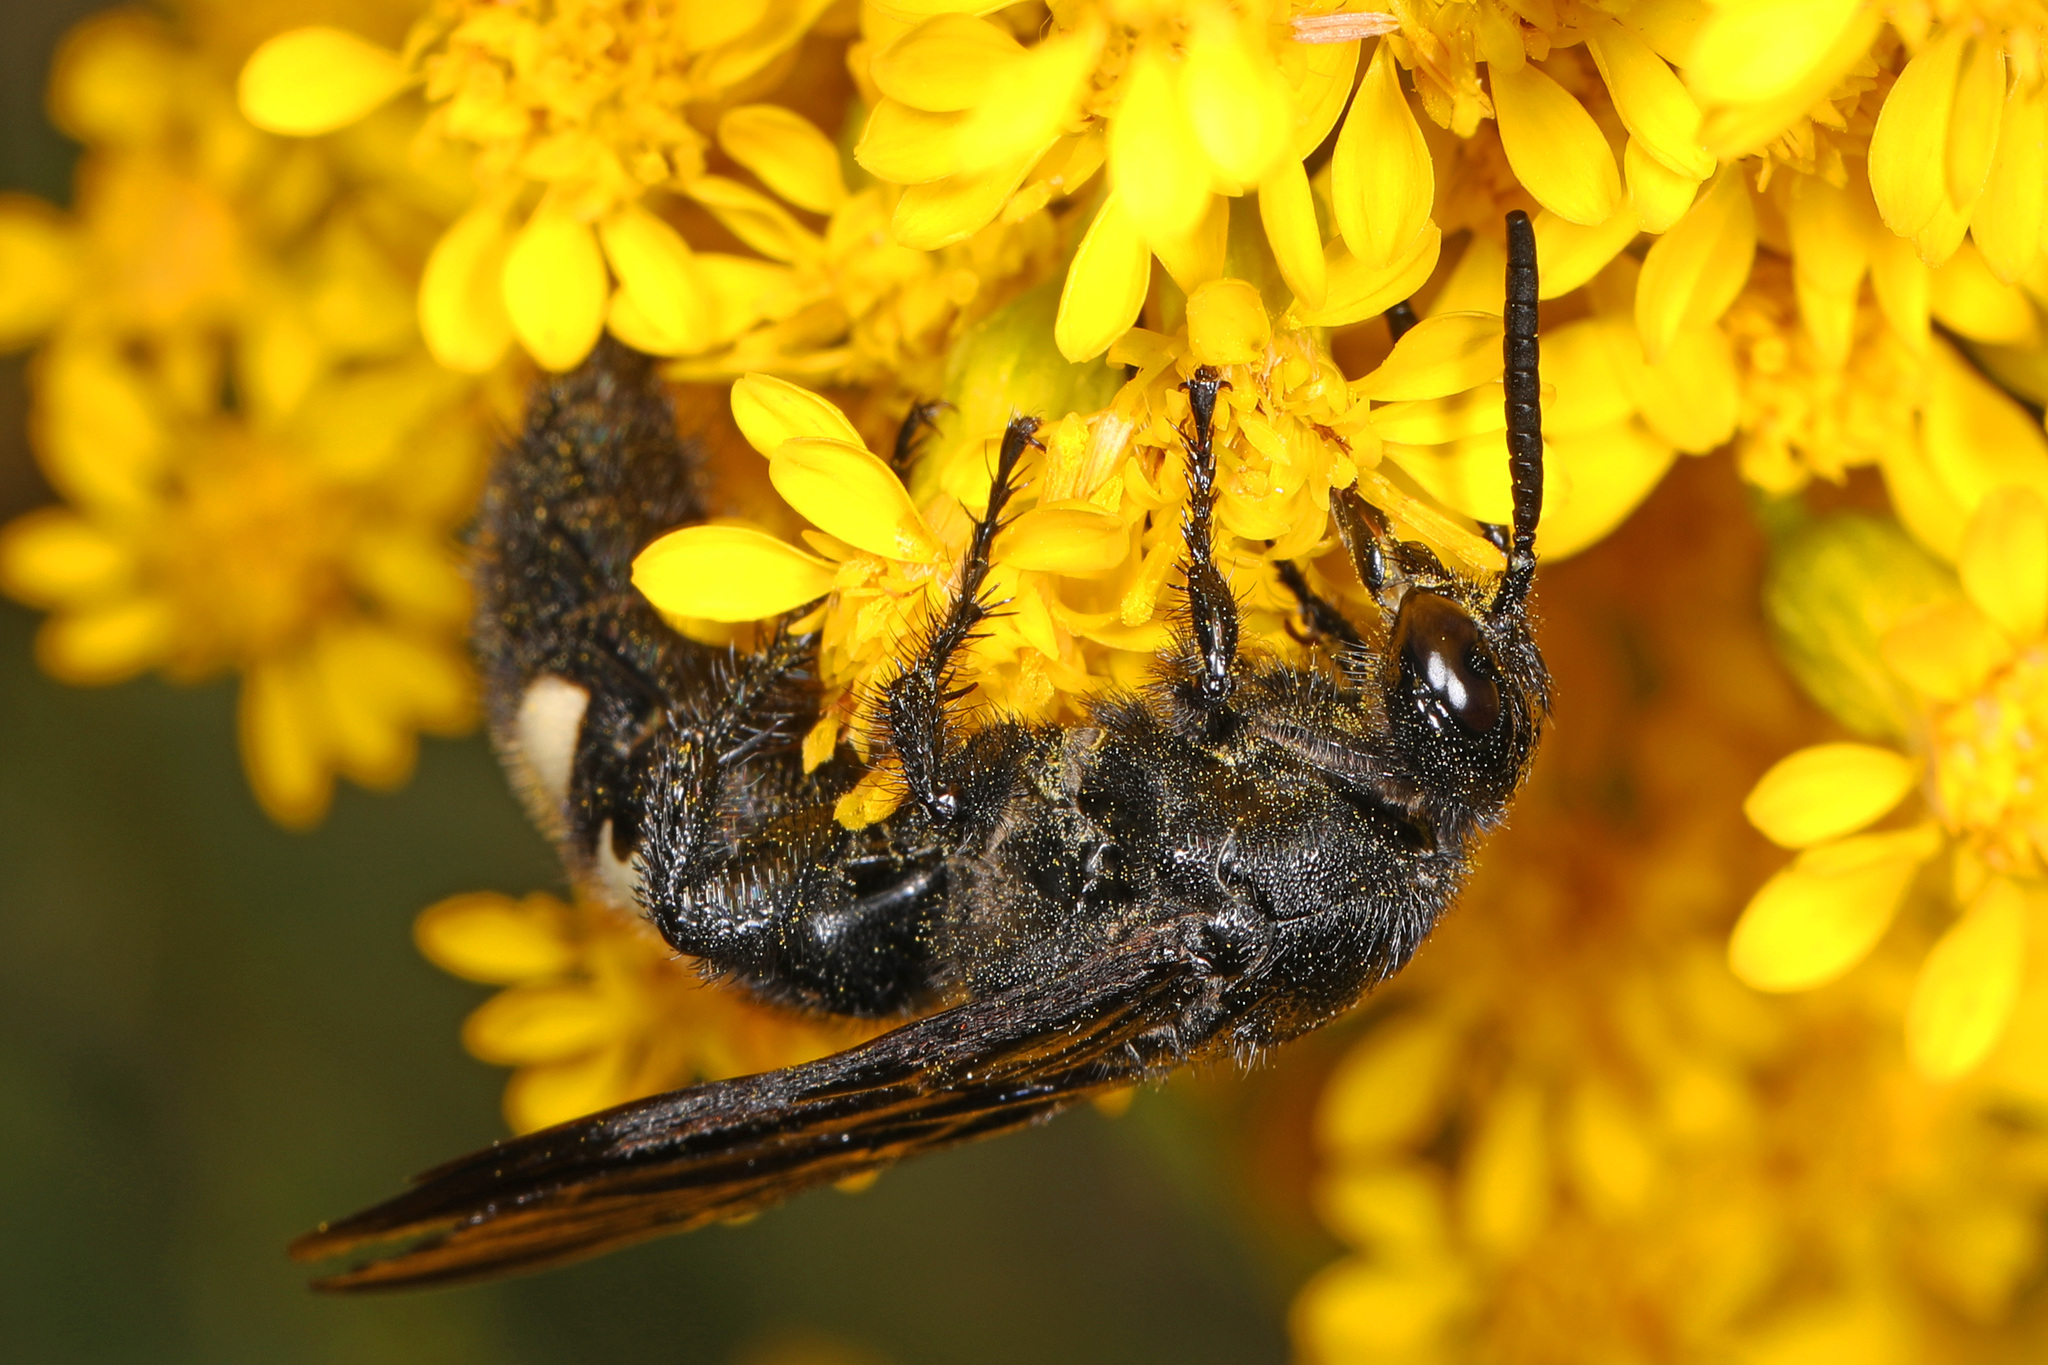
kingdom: Animalia
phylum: Arthropoda
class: Insecta
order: Hymenoptera
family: Scoliidae
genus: Scolia
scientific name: Scolia bicincta
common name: Double-banded scoliid wasp
